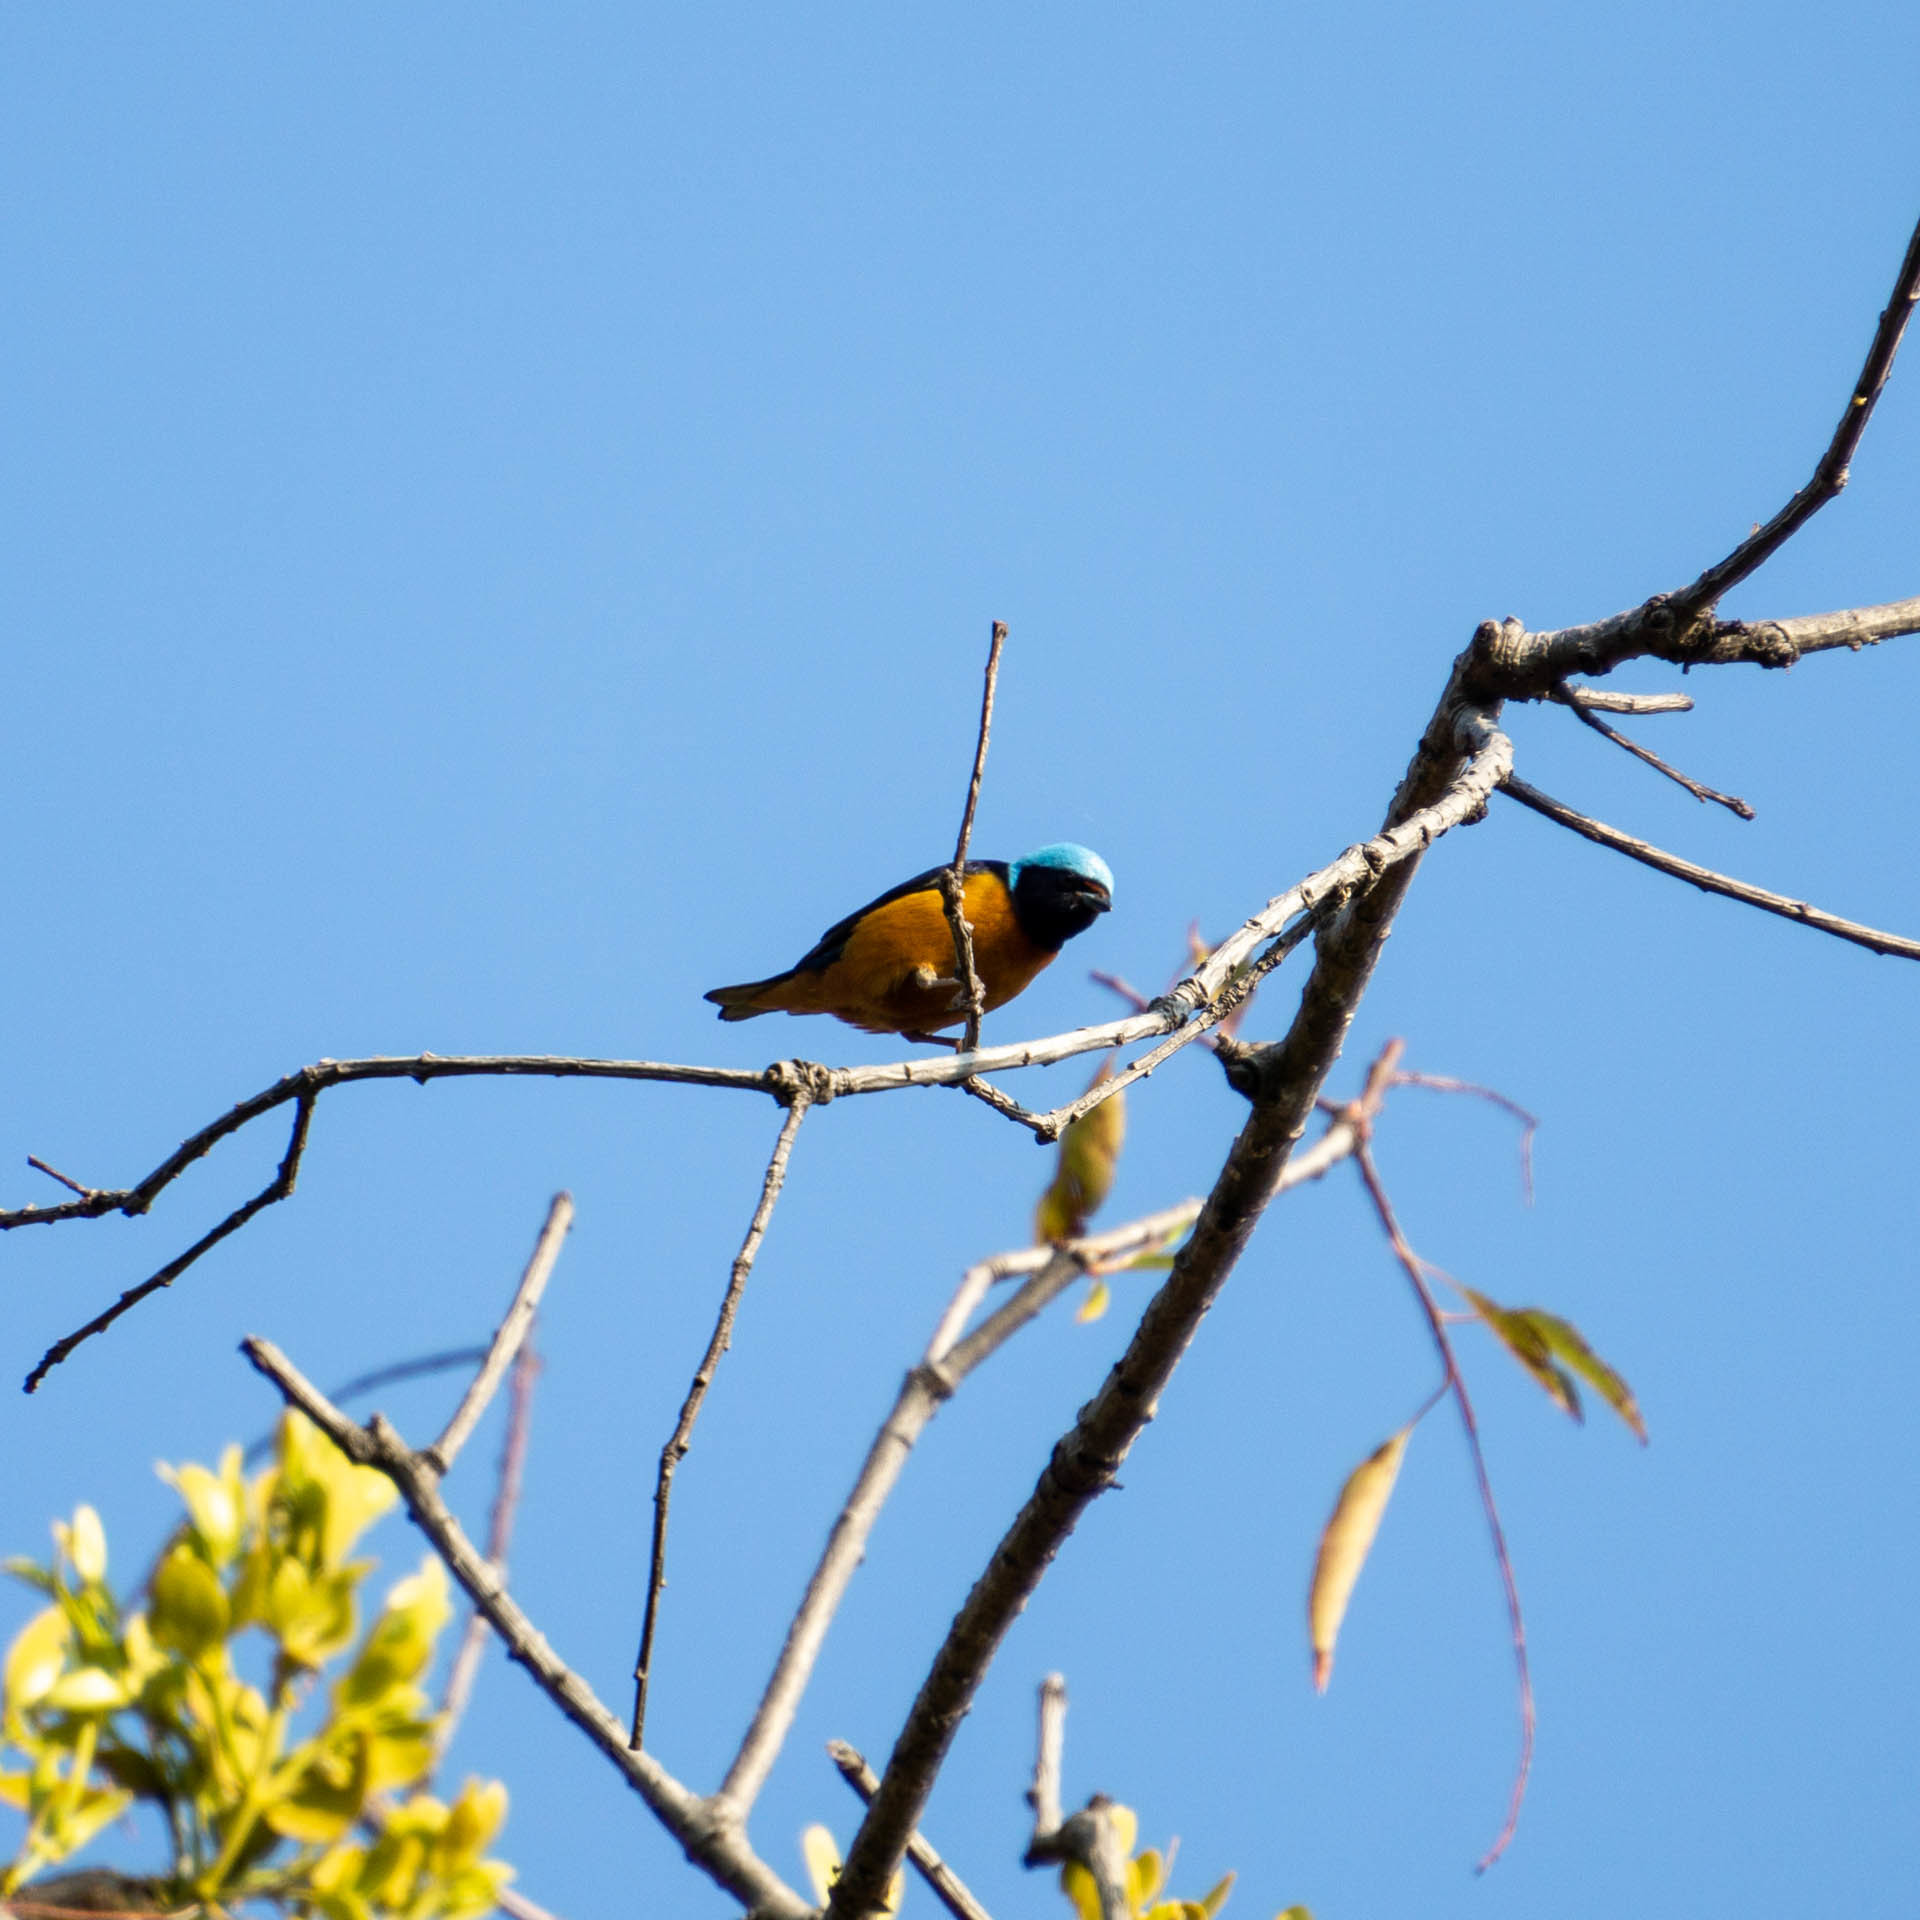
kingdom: Animalia
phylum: Chordata
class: Aves
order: Passeriformes
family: Fringillidae
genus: Euphonia
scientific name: Euphonia elegantissima
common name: Elegant euphonia
